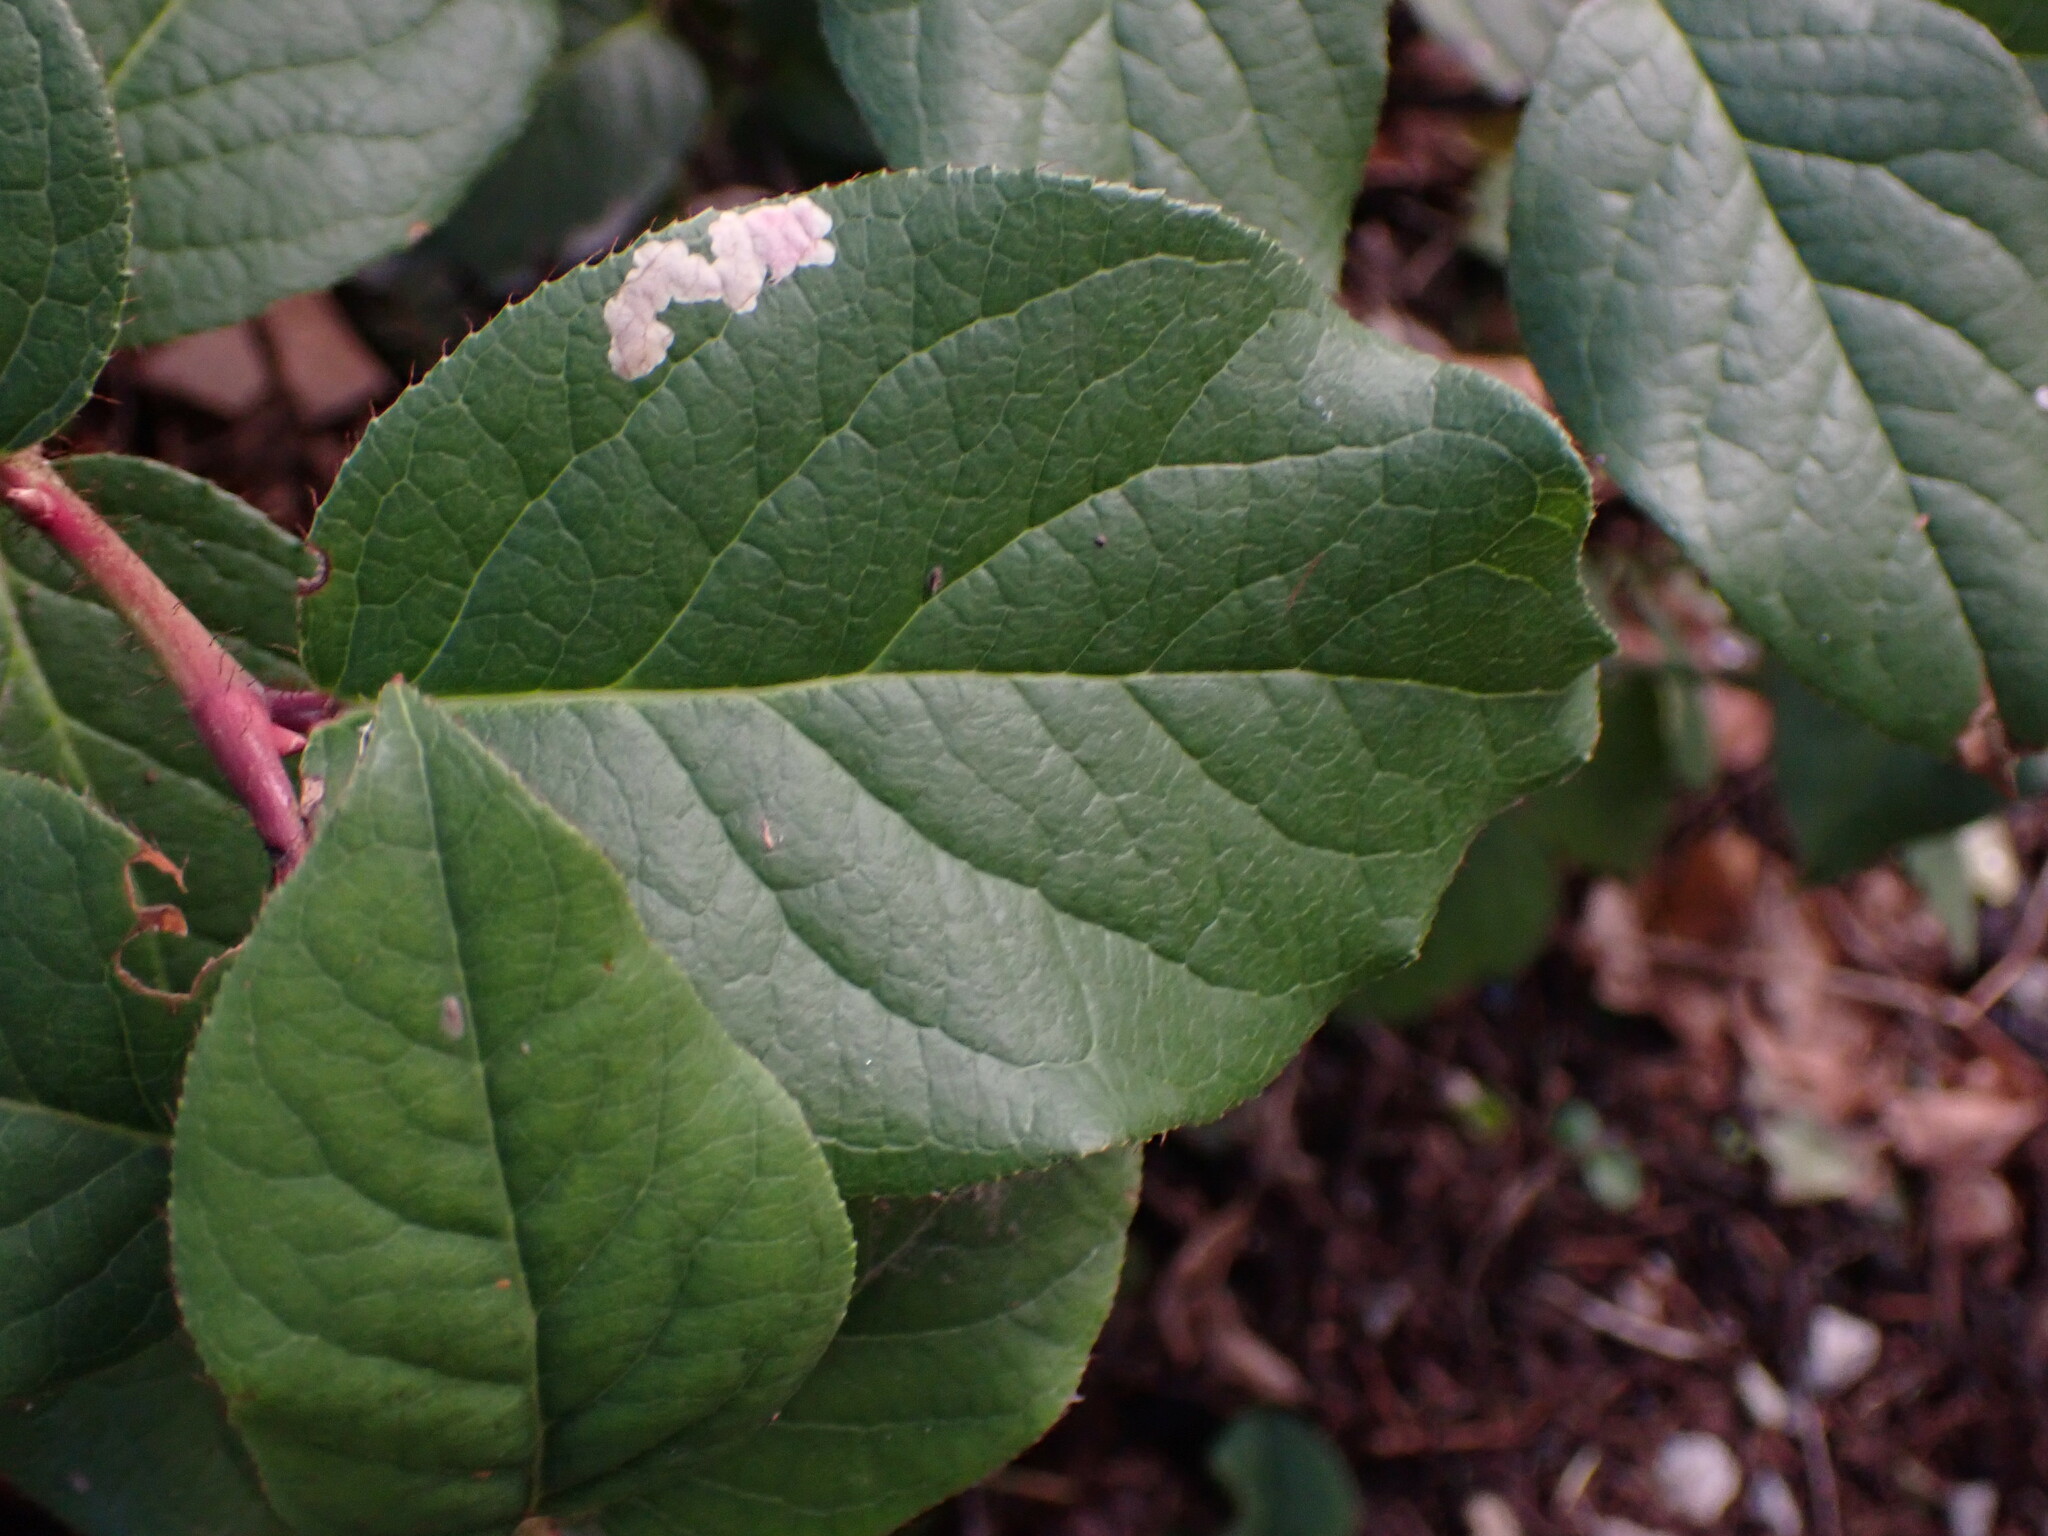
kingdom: Animalia
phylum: Arthropoda
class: Insecta
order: Lepidoptera
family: Gracillariidae
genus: Cameraria
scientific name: Cameraria gaultheriella
